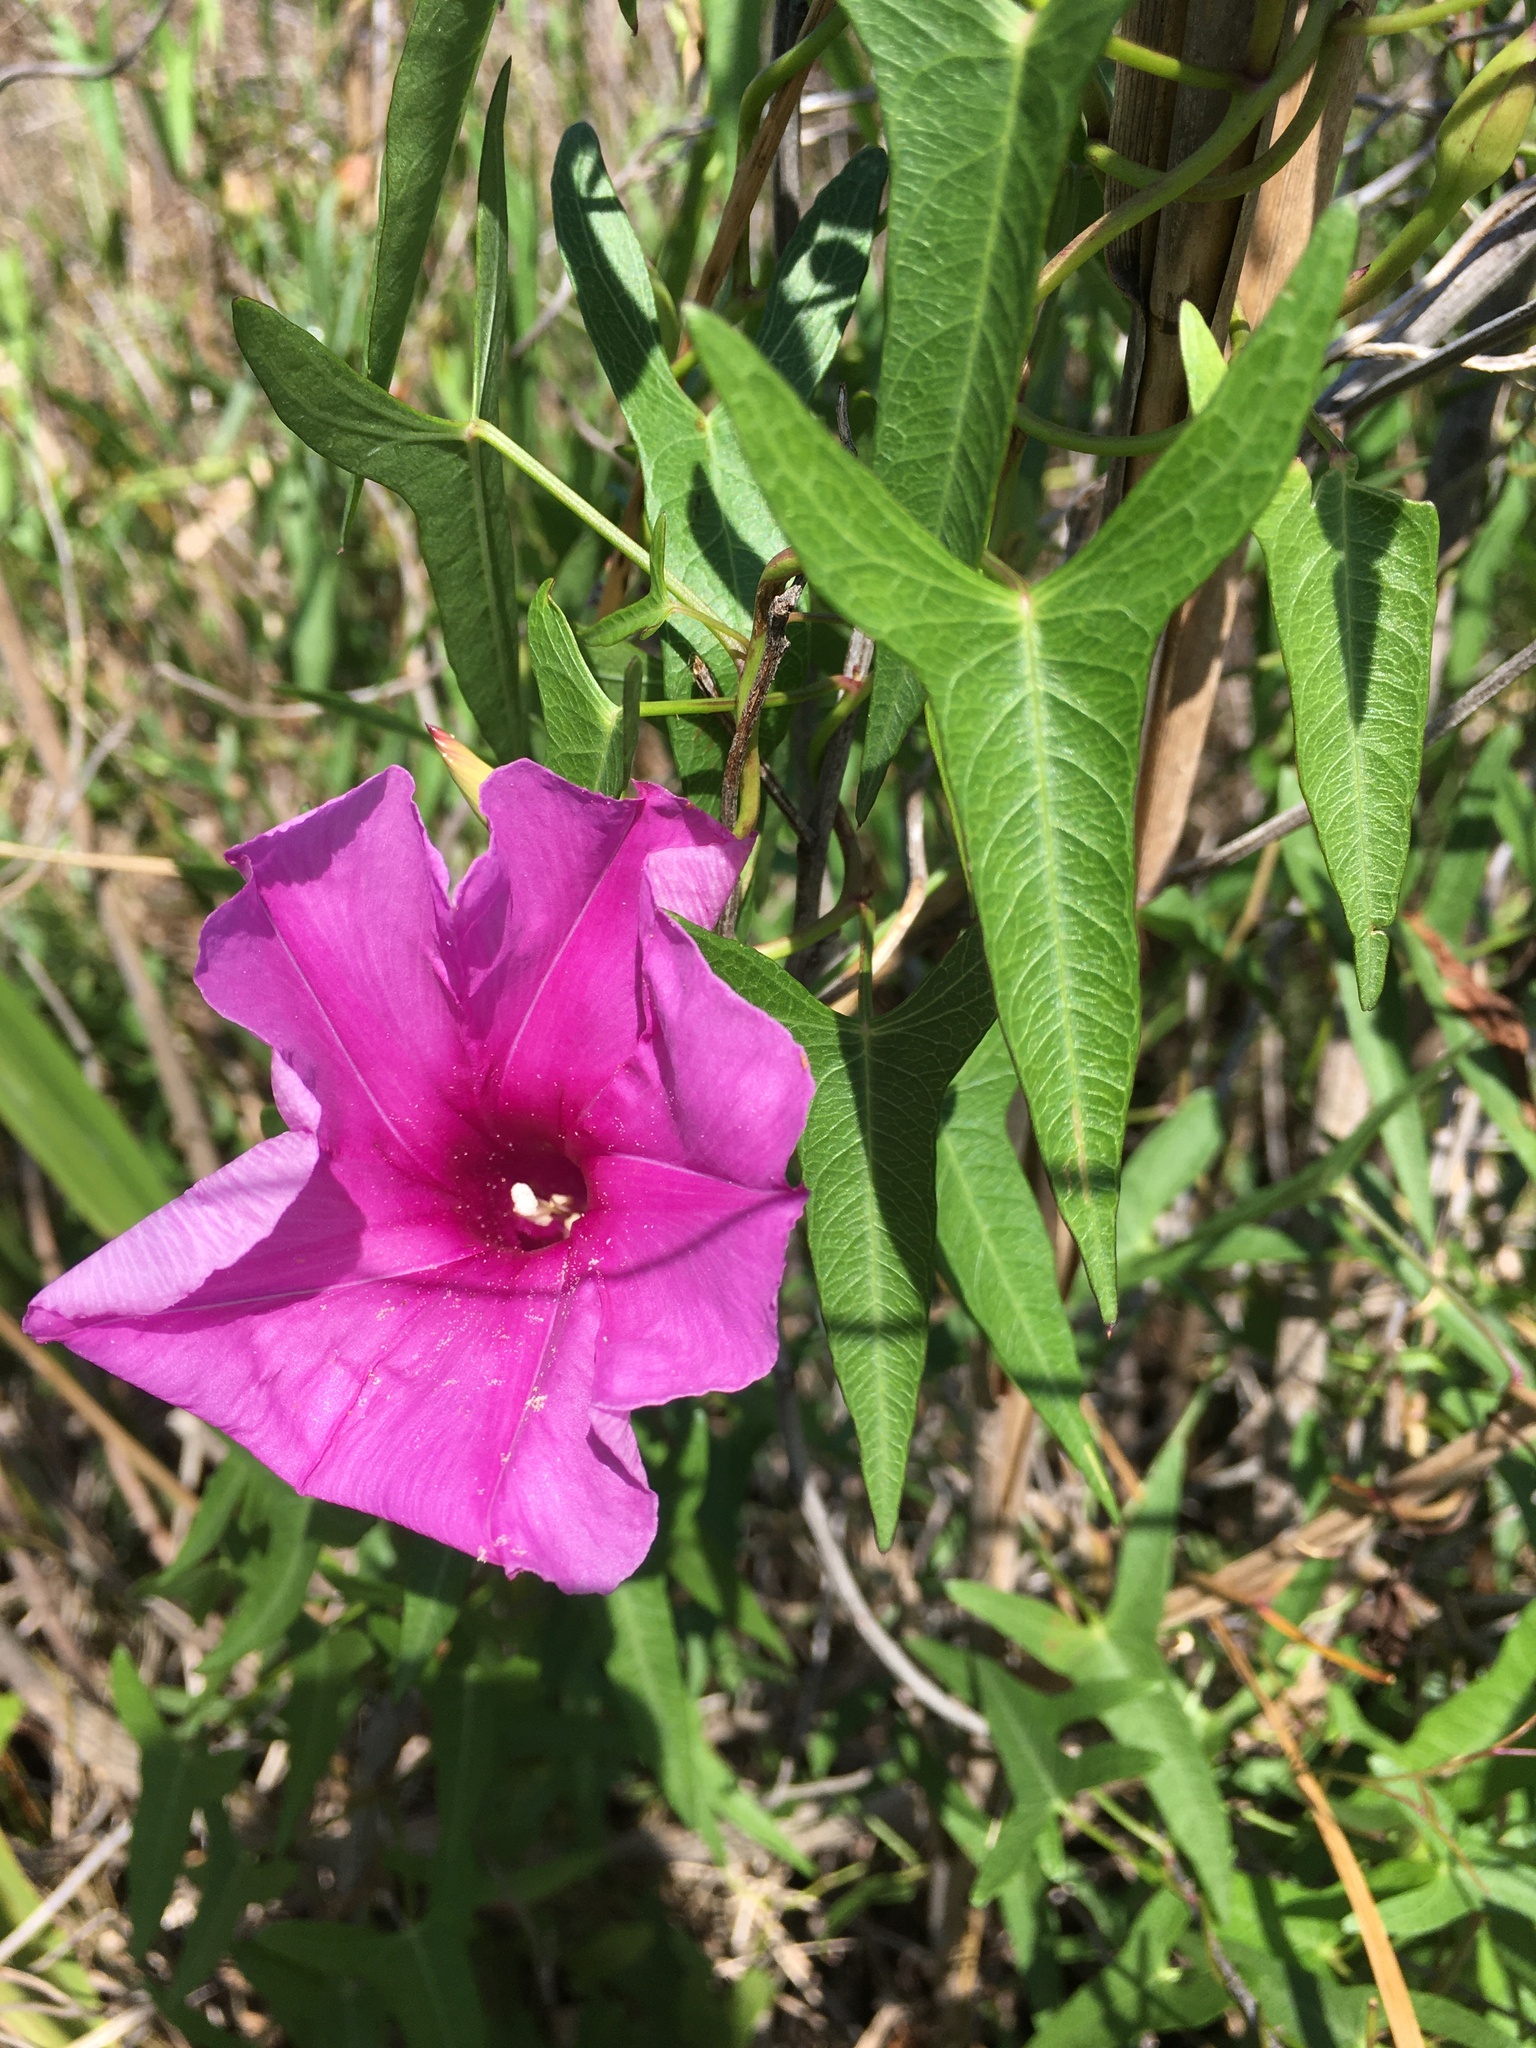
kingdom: Plantae
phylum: Tracheophyta
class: Magnoliopsida
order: Solanales
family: Convolvulaceae
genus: Ipomoea
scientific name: Ipomoea sagittata
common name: Saltmarsh morning glory
